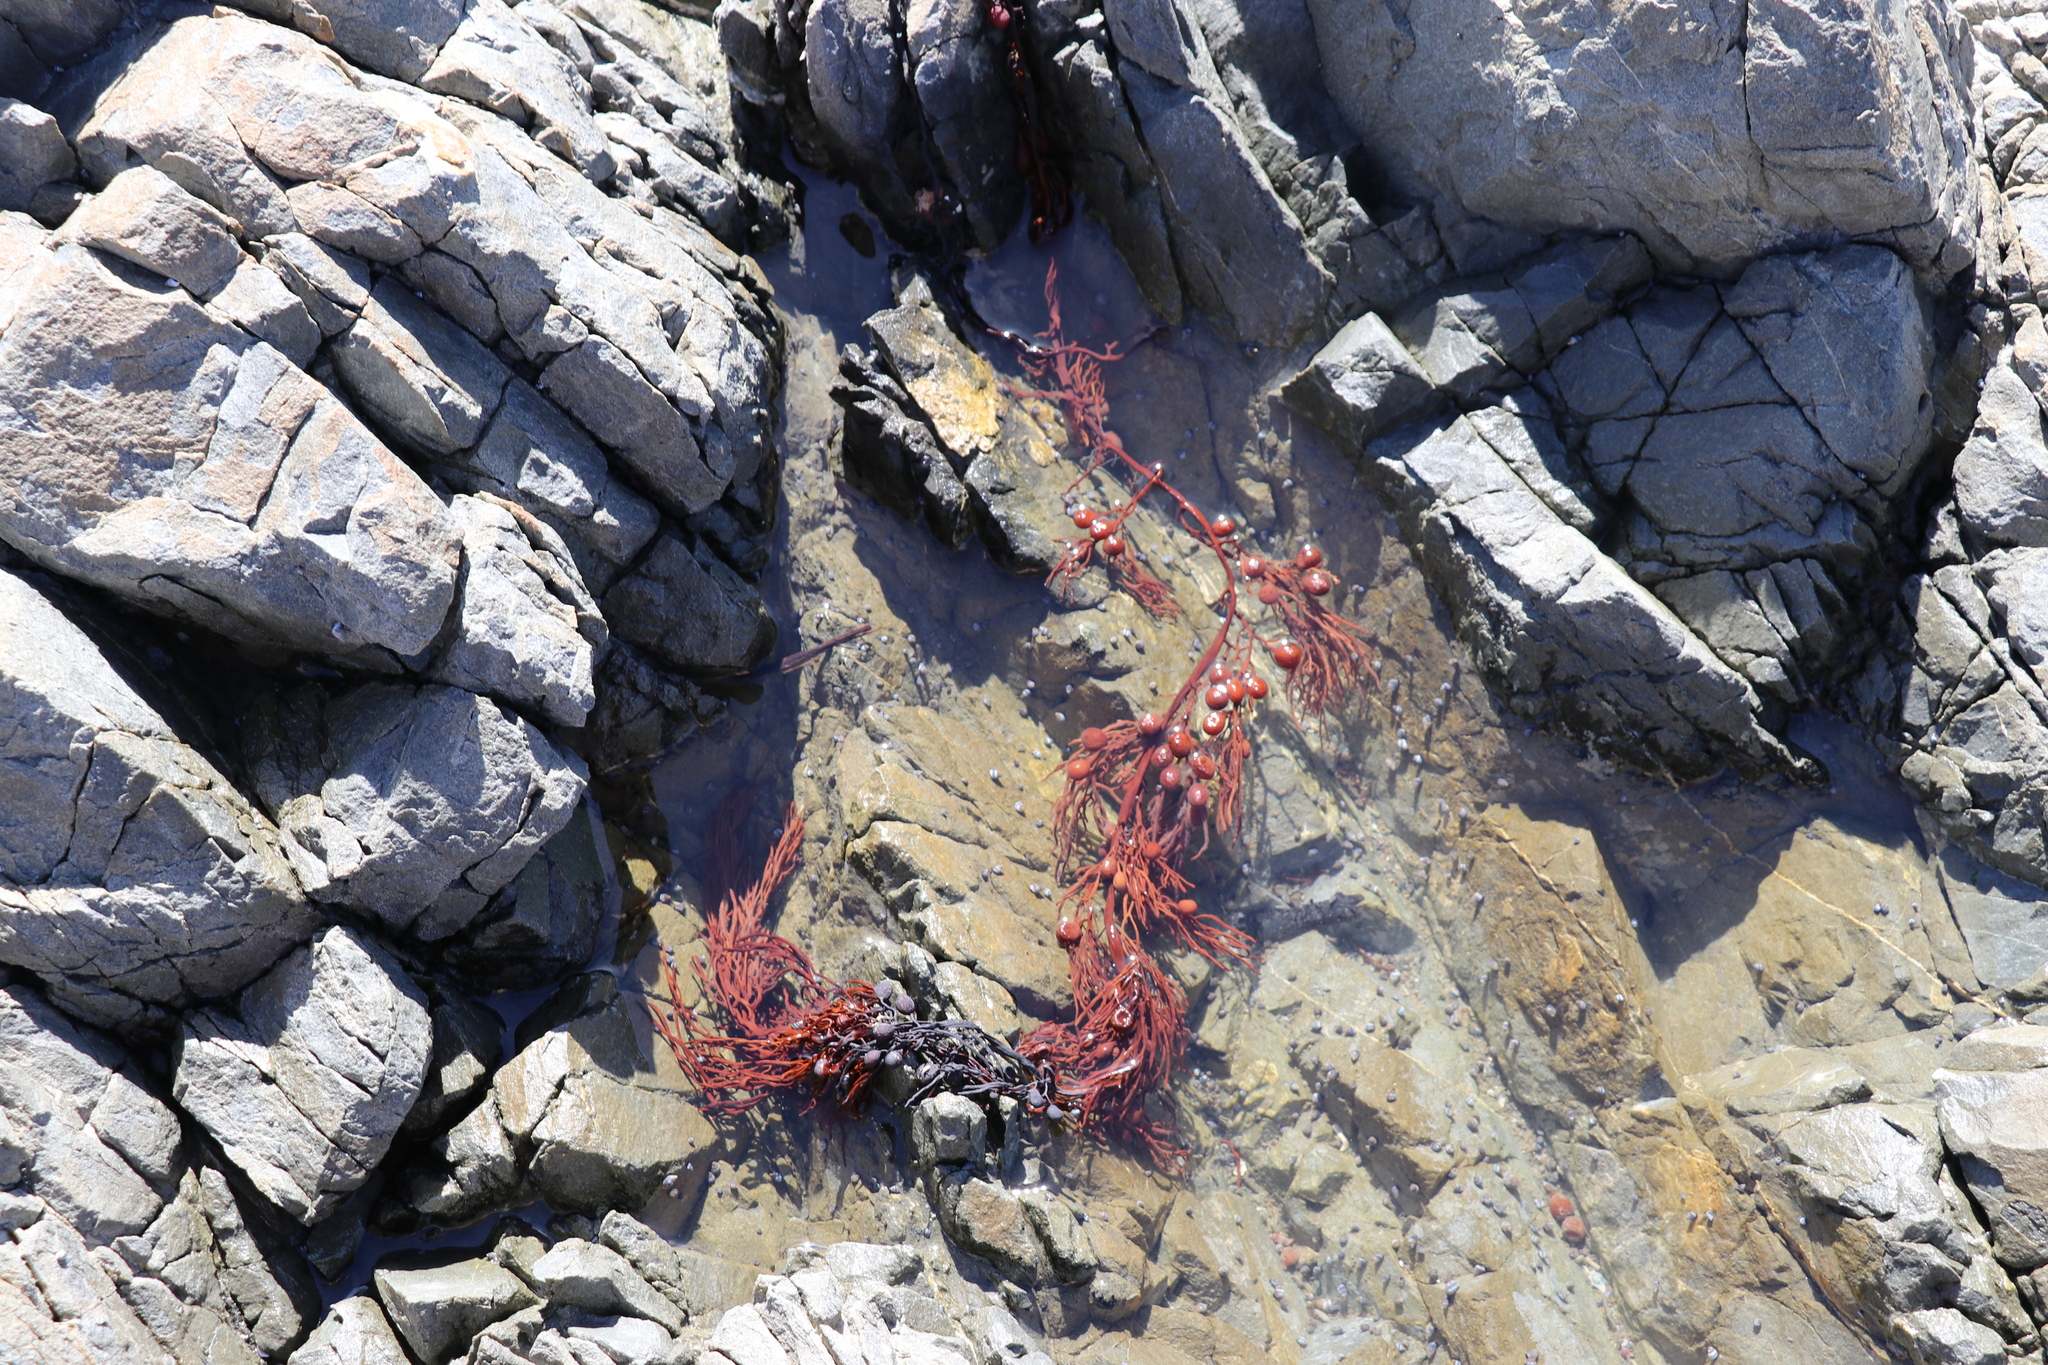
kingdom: Chromista
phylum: Ochrophyta
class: Phaeophyceae
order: Fucales
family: Sargassaceae
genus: Cystophora
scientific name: Cystophora retroflexa
